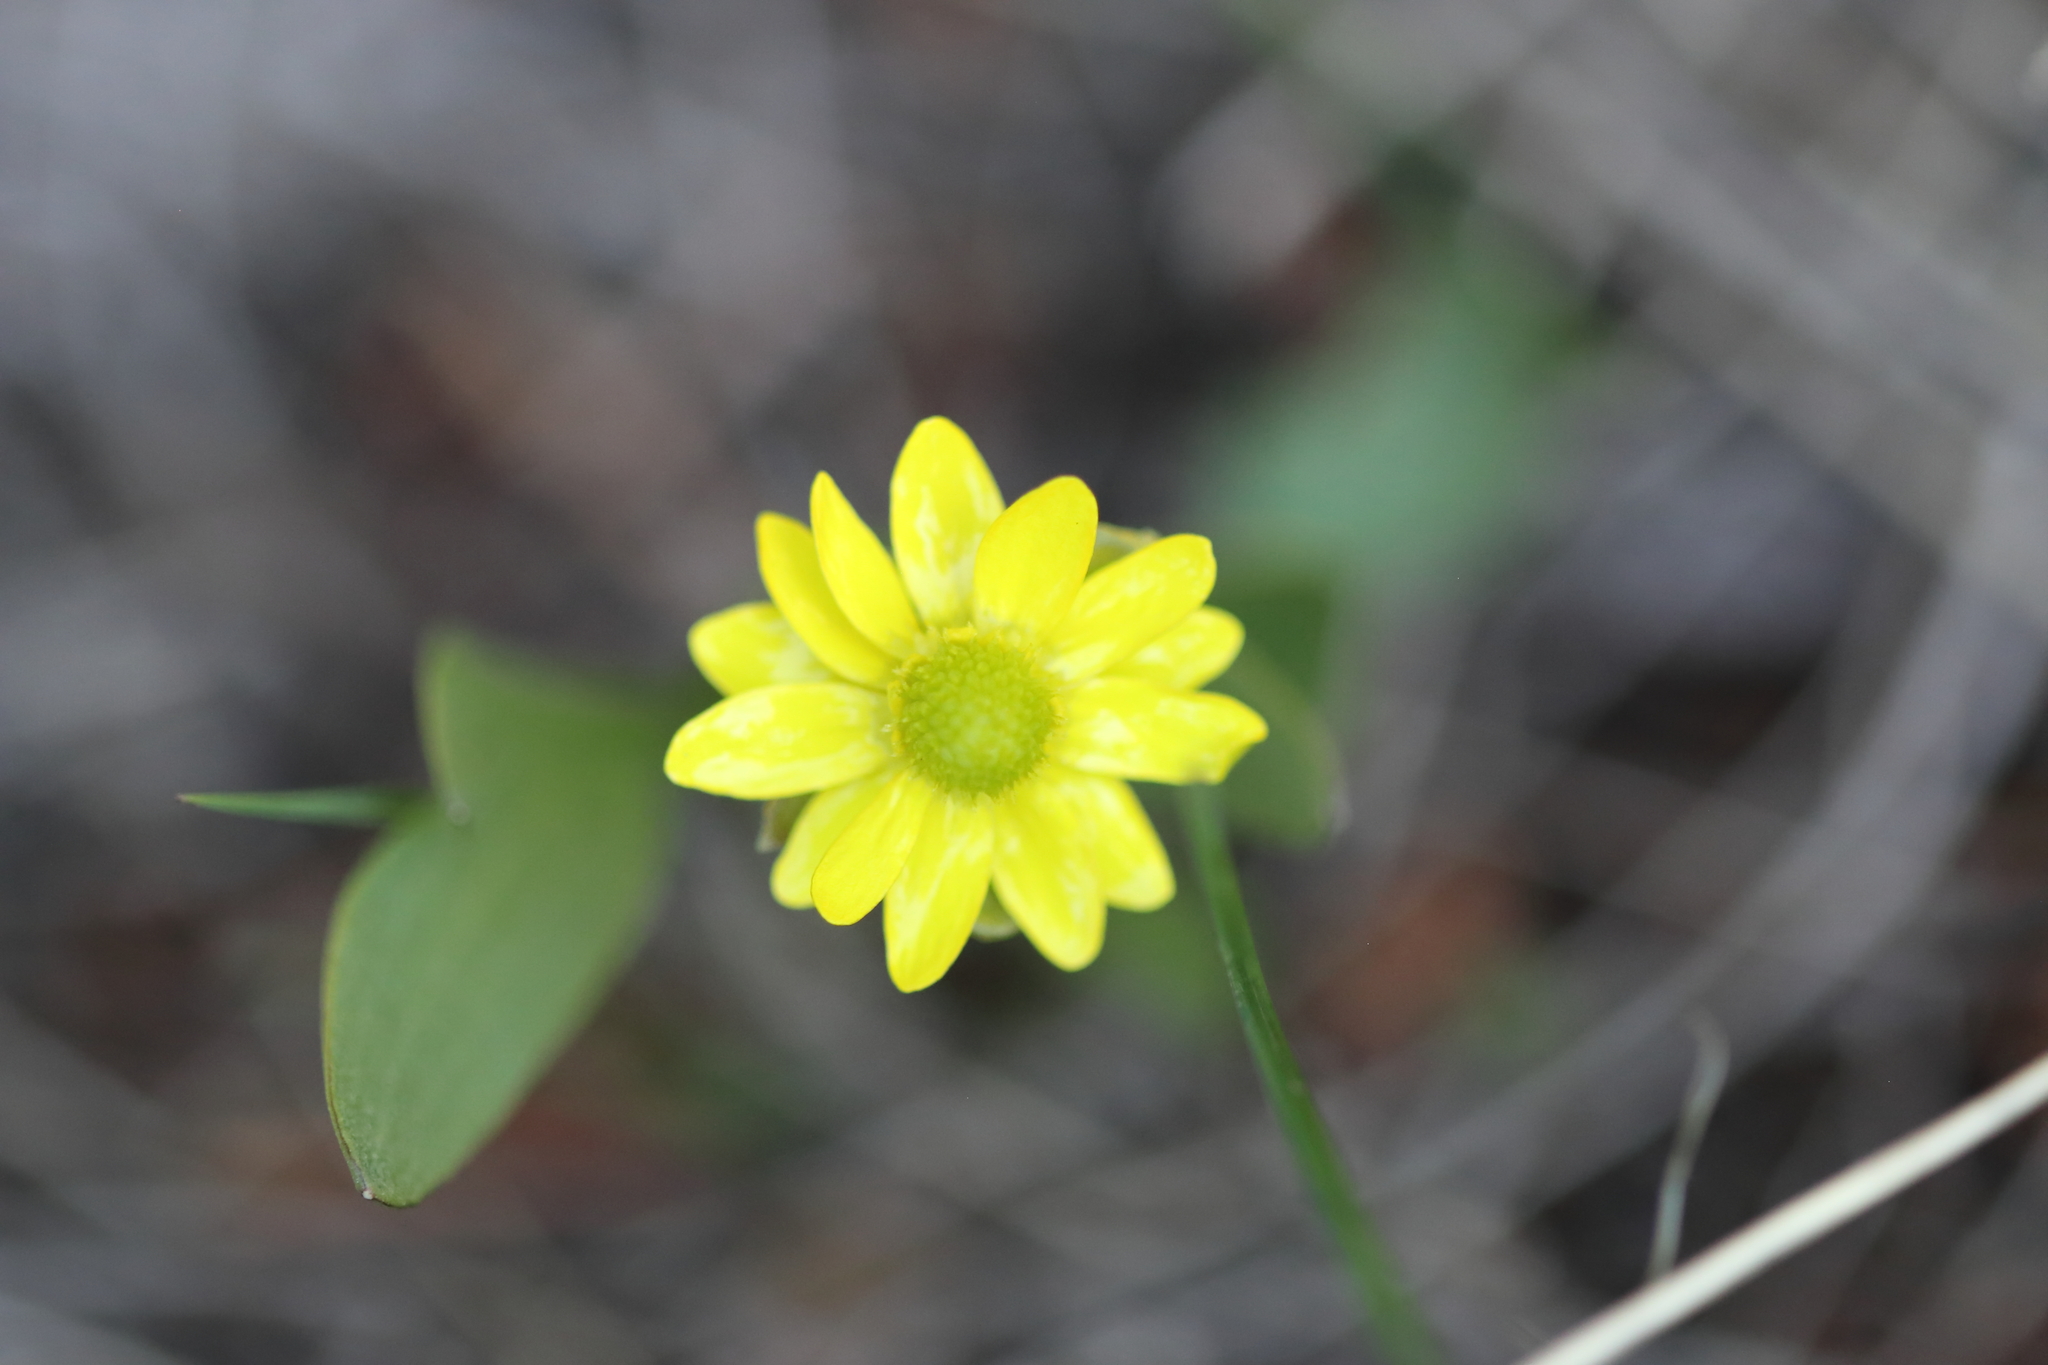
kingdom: Plantae
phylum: Tracheophyta
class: Magnoliopsida
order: Ranunculales
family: Ranunculaceae
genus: Ranunculus
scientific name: Ranunculus glaberrimus
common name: Sagebrush buttercup
